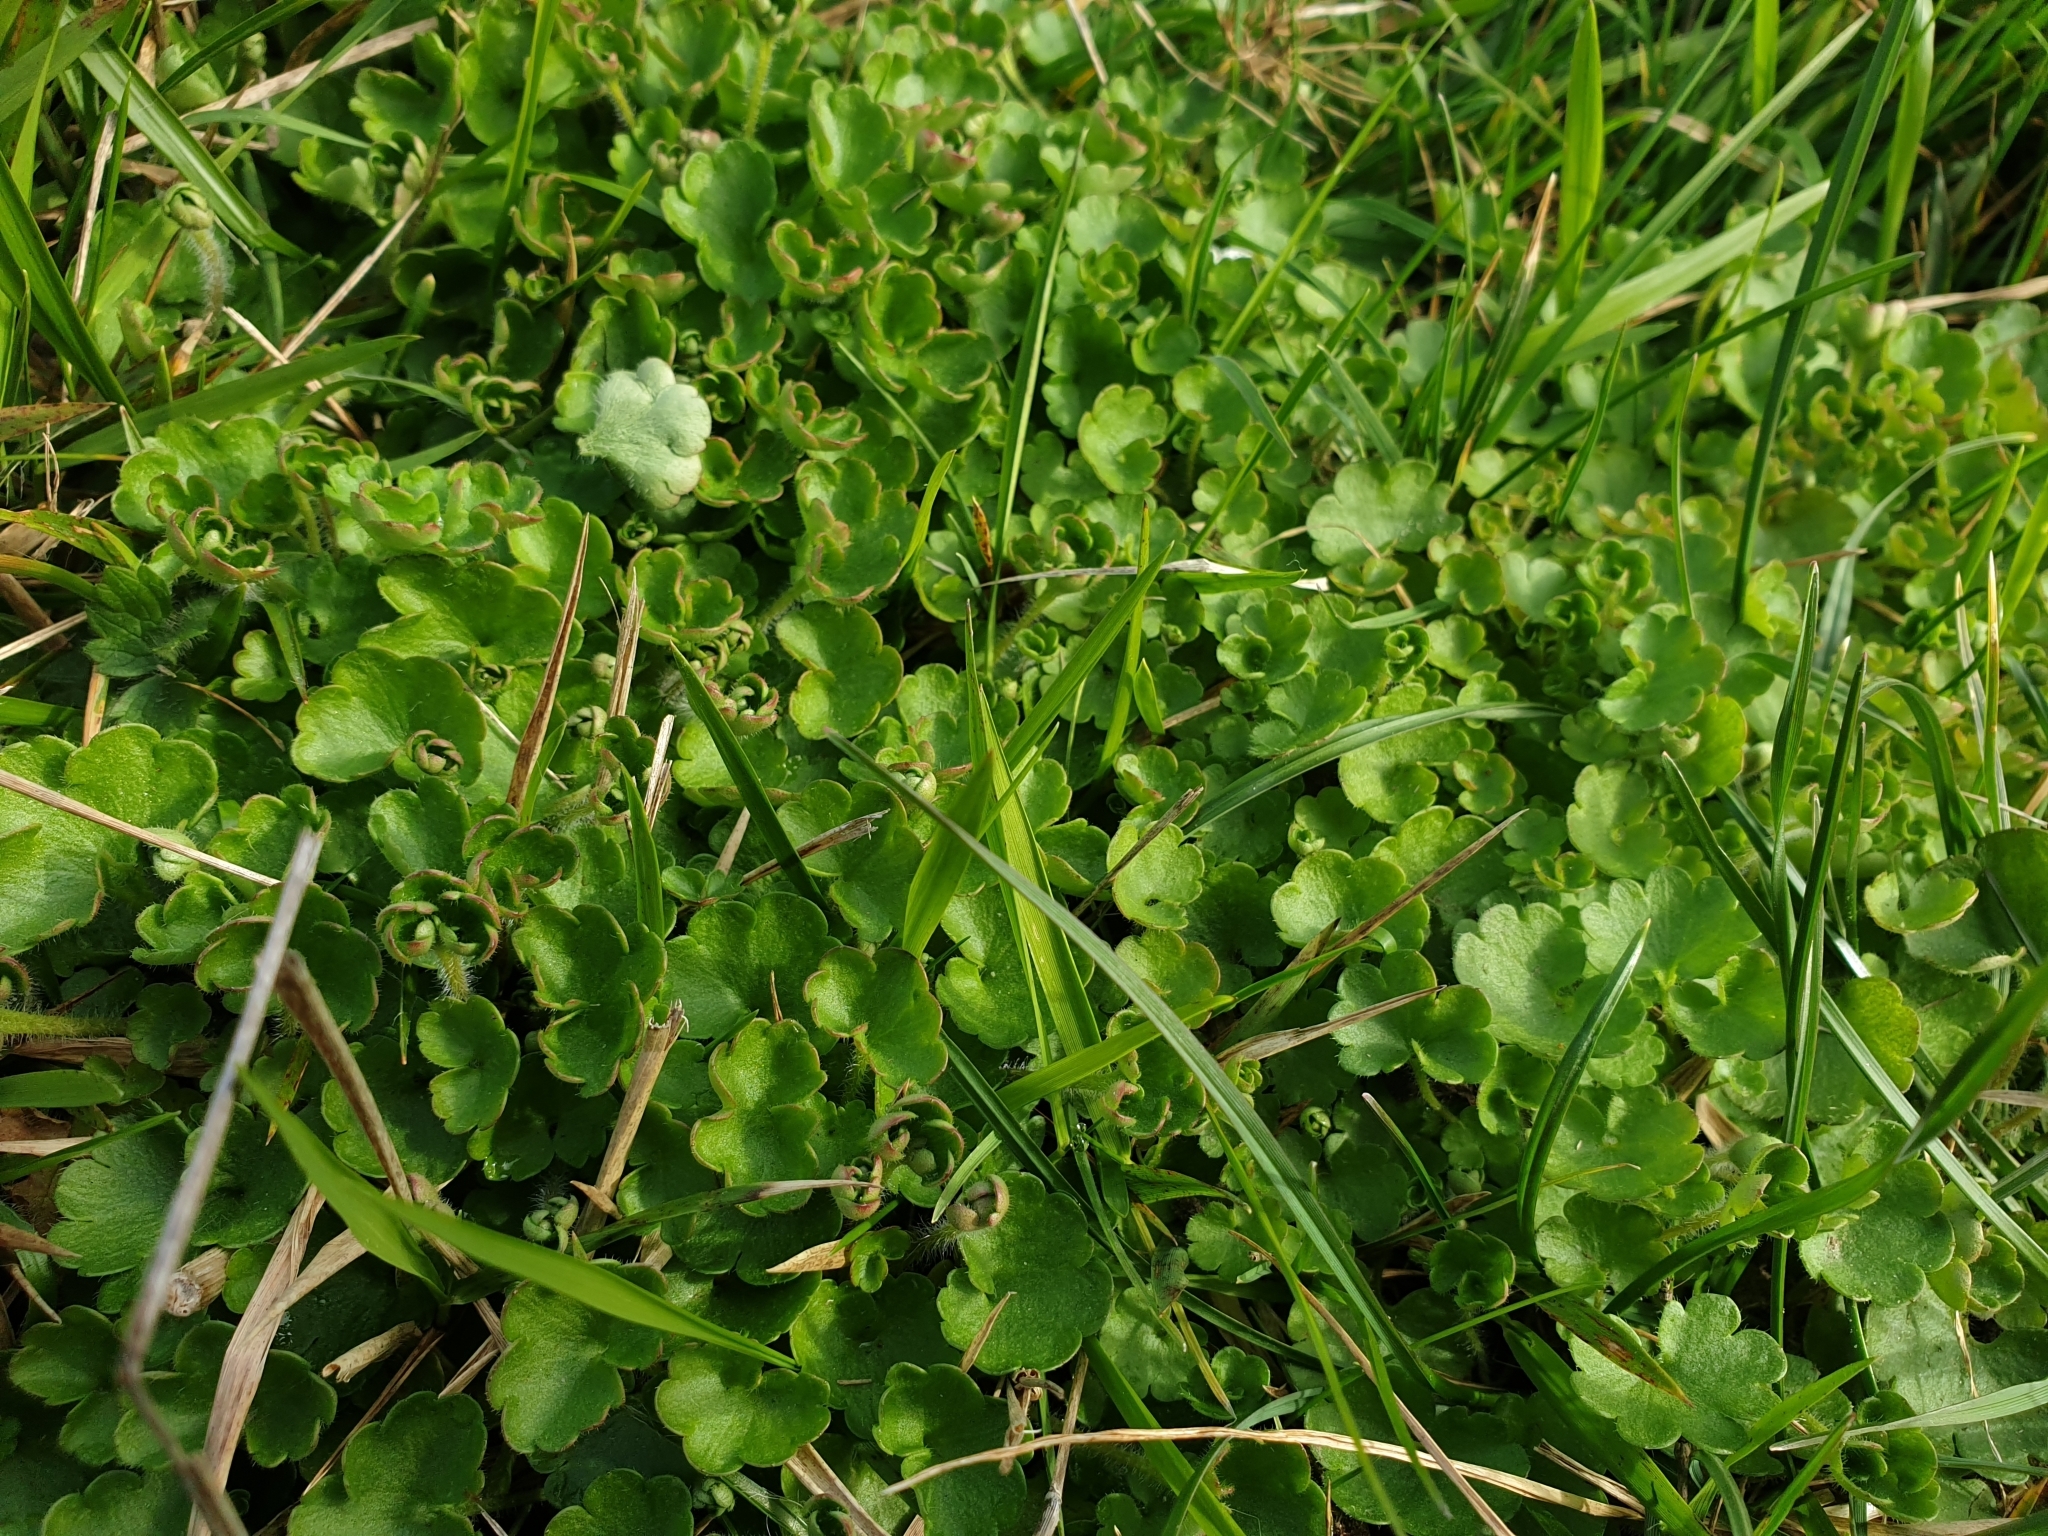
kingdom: Plantae
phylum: Tracheophyta
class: Magnoliopsida
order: Saxifragales
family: Saxifragaceae
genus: Saxifraga
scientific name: Saxifraga granulata
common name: Meadow saxifrage
